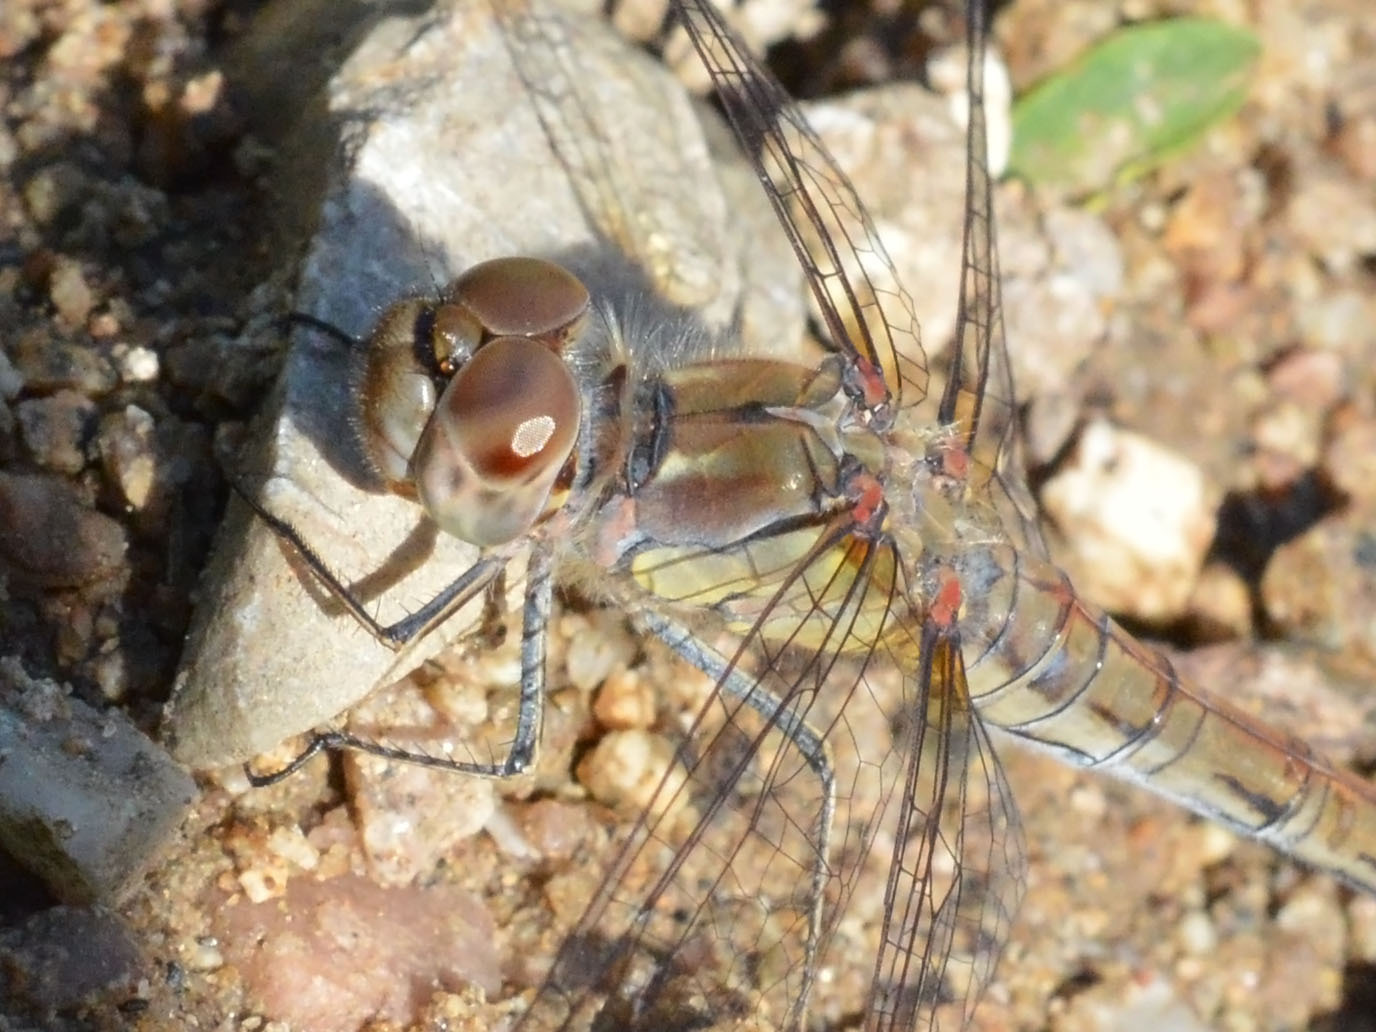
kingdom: Animalia
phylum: Arthropoda
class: Insecta
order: Odonata
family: Libellulidae
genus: Sympetrum
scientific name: Sympetrum striolatum
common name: Common darter
